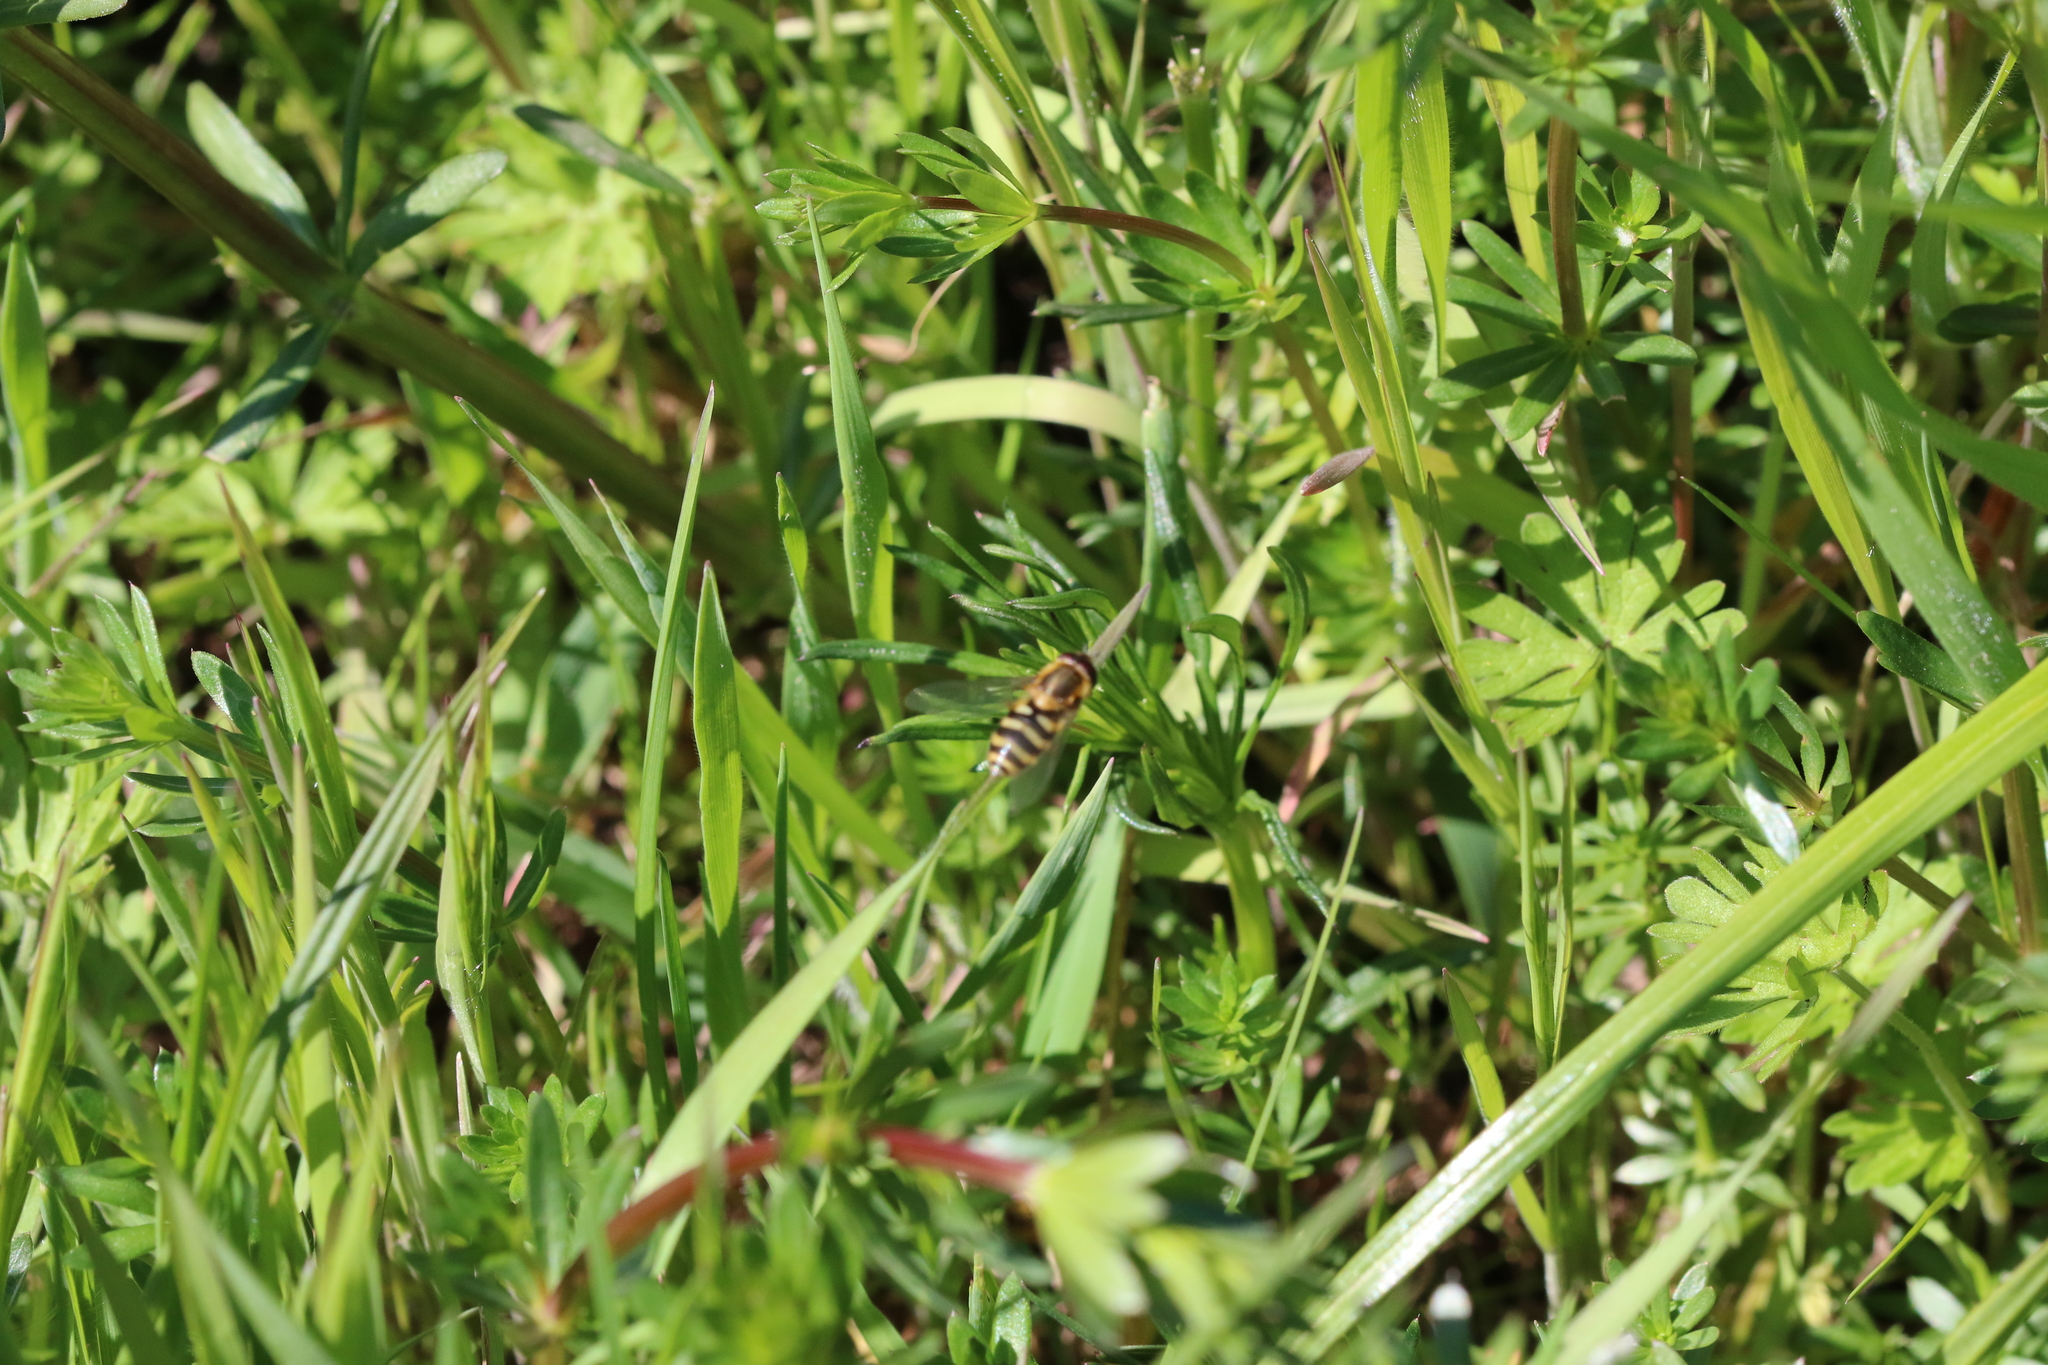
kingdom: Animalia
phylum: Arthropoda
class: Insecta
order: Diptera
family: Syrphidae
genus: Syrphus
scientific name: Syrphus
